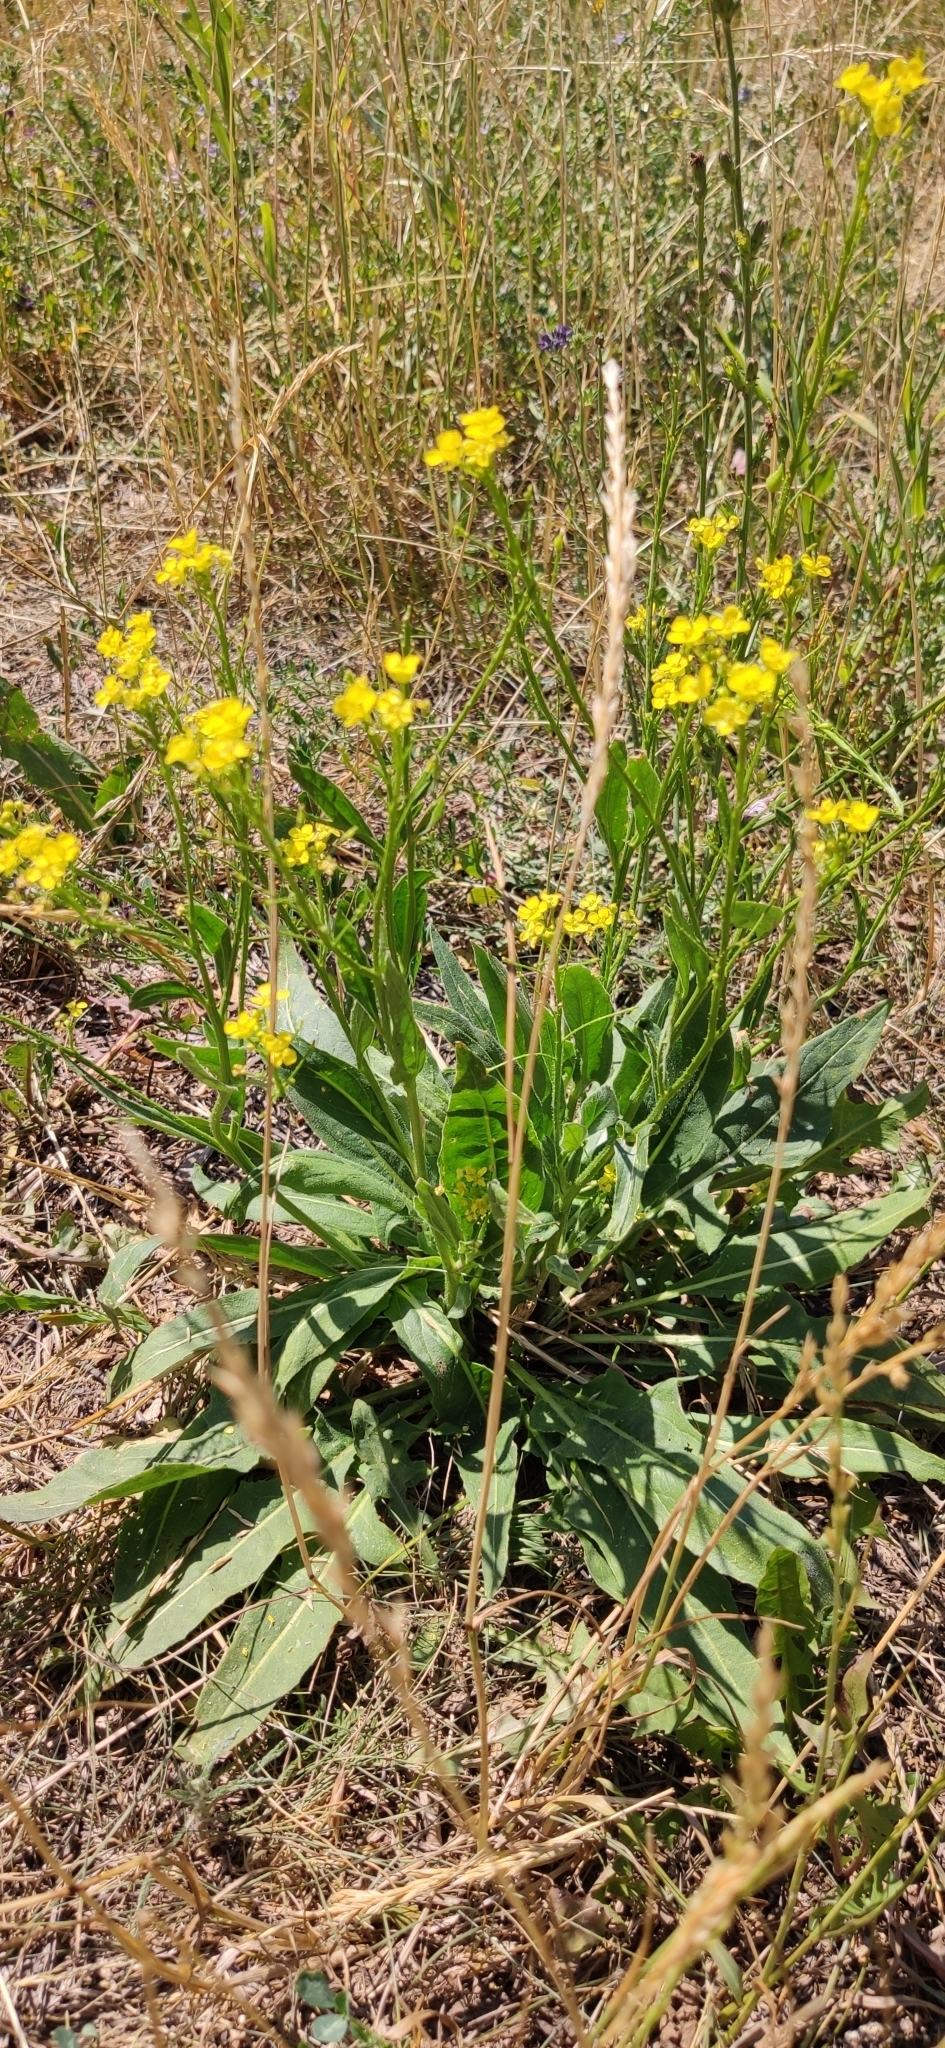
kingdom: Plantae
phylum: Tracheophyta
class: Magnoliopsida
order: Brassicales
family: Brassicaceae
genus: Bunias
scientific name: Bunias orientalis
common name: Warty-cabbage
